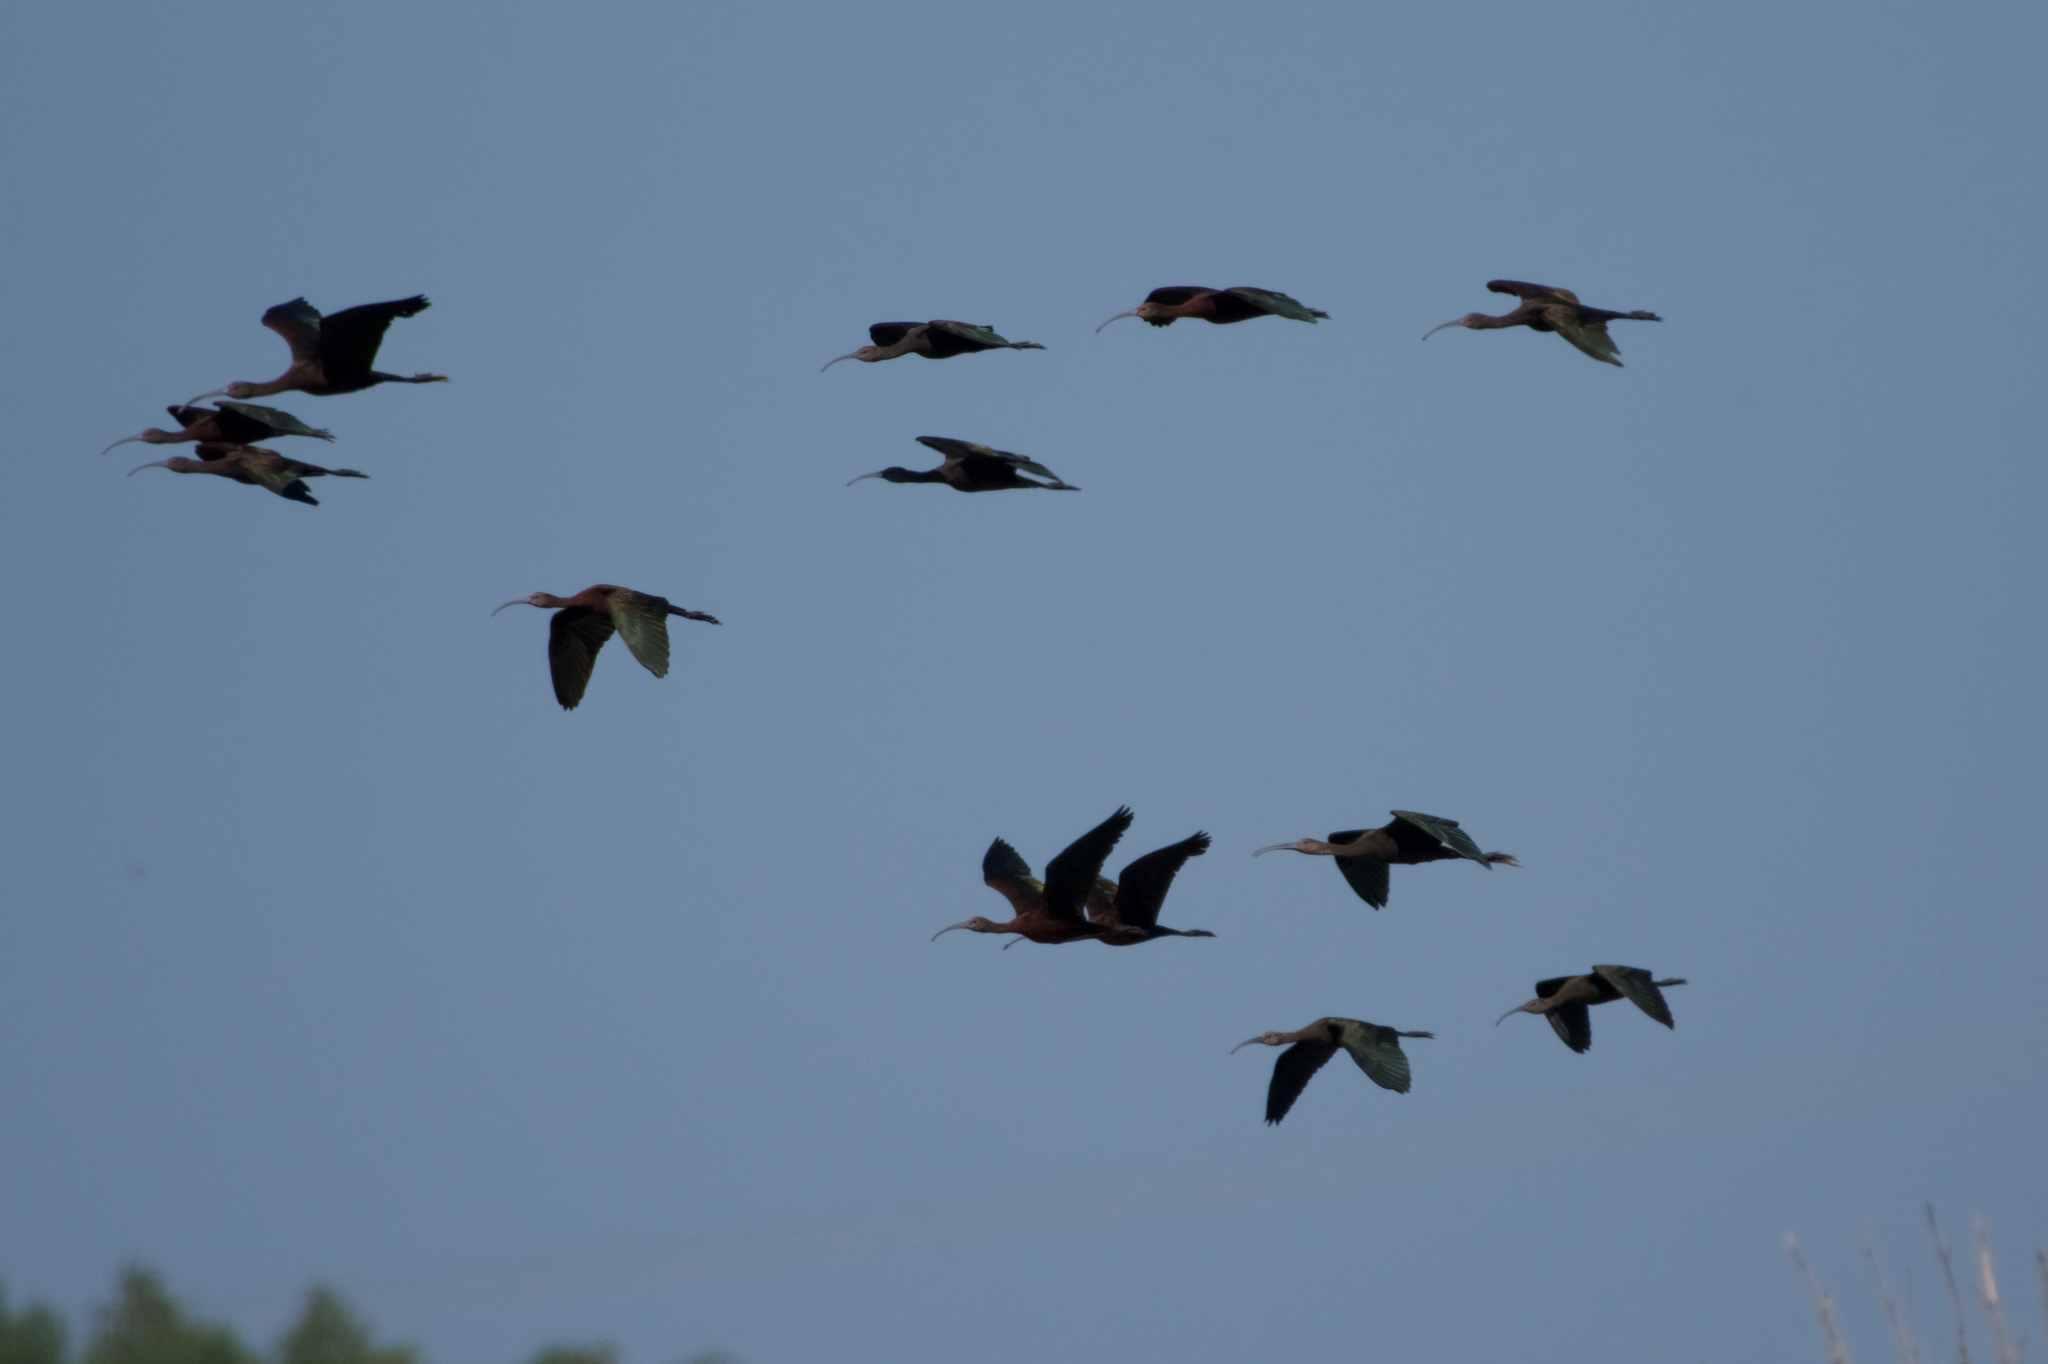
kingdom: Animalia
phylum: Chordata
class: Aves
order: Pelecaniformes
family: Threskiornithidae
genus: Plegadis
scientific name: Plegadis chihi
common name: White-faced ibis
